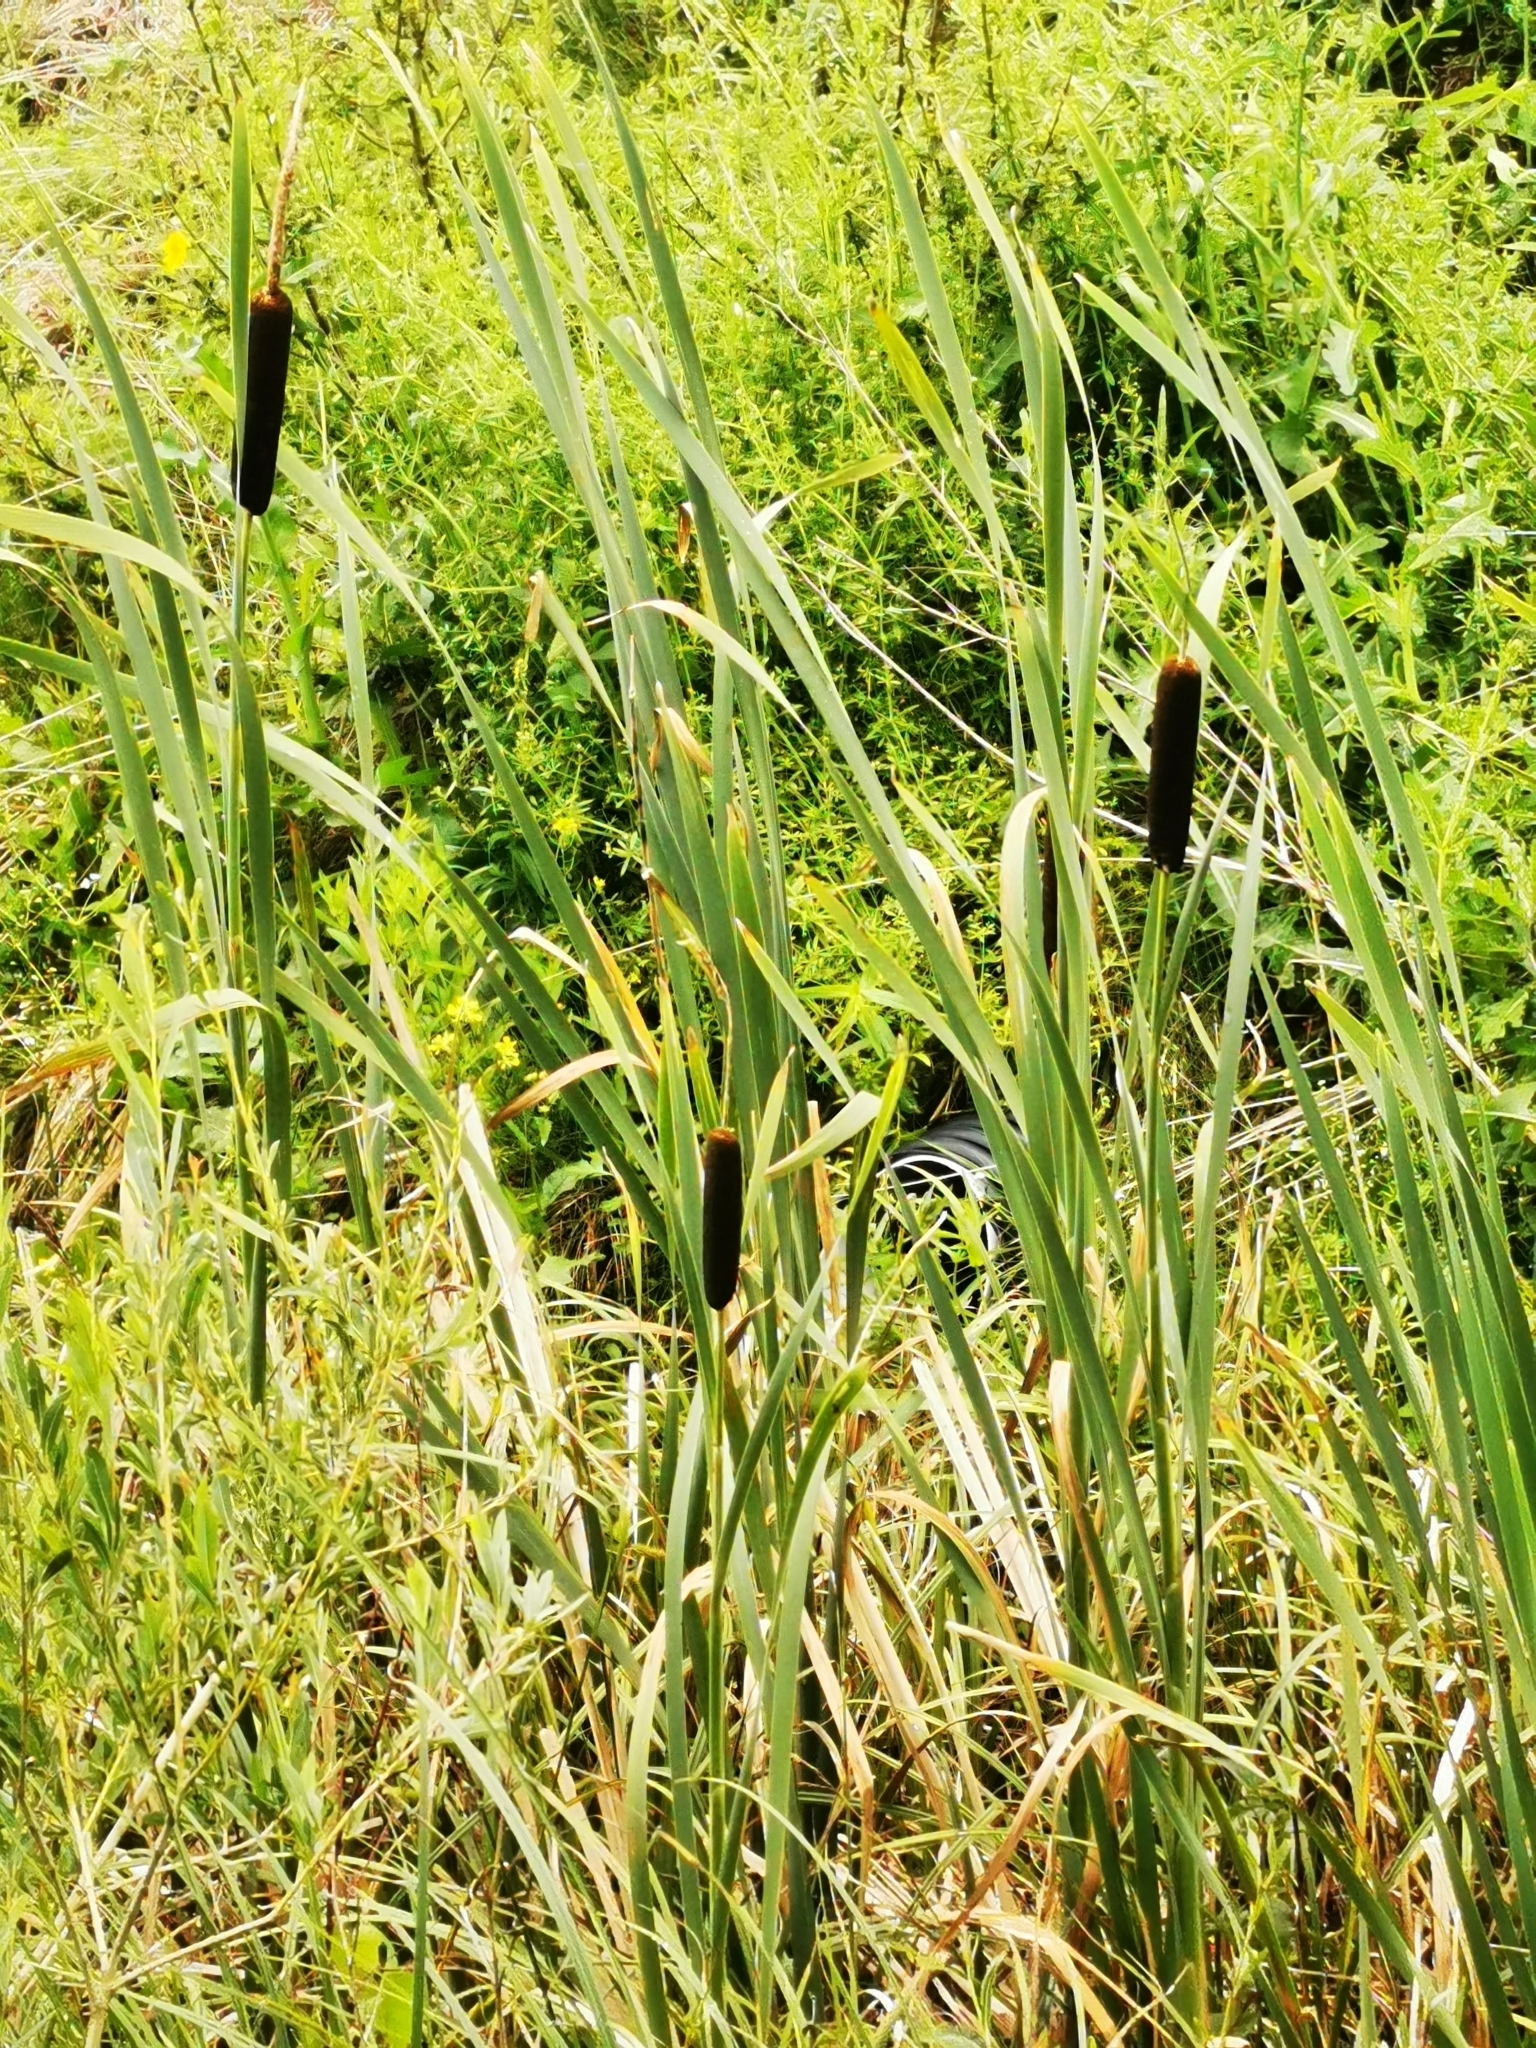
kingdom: Plantae
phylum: Tracheophyta
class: Liliopsida
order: Poales
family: Typhaceae
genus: Typha
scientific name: Typha latifolia
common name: Broadleaf cattail
